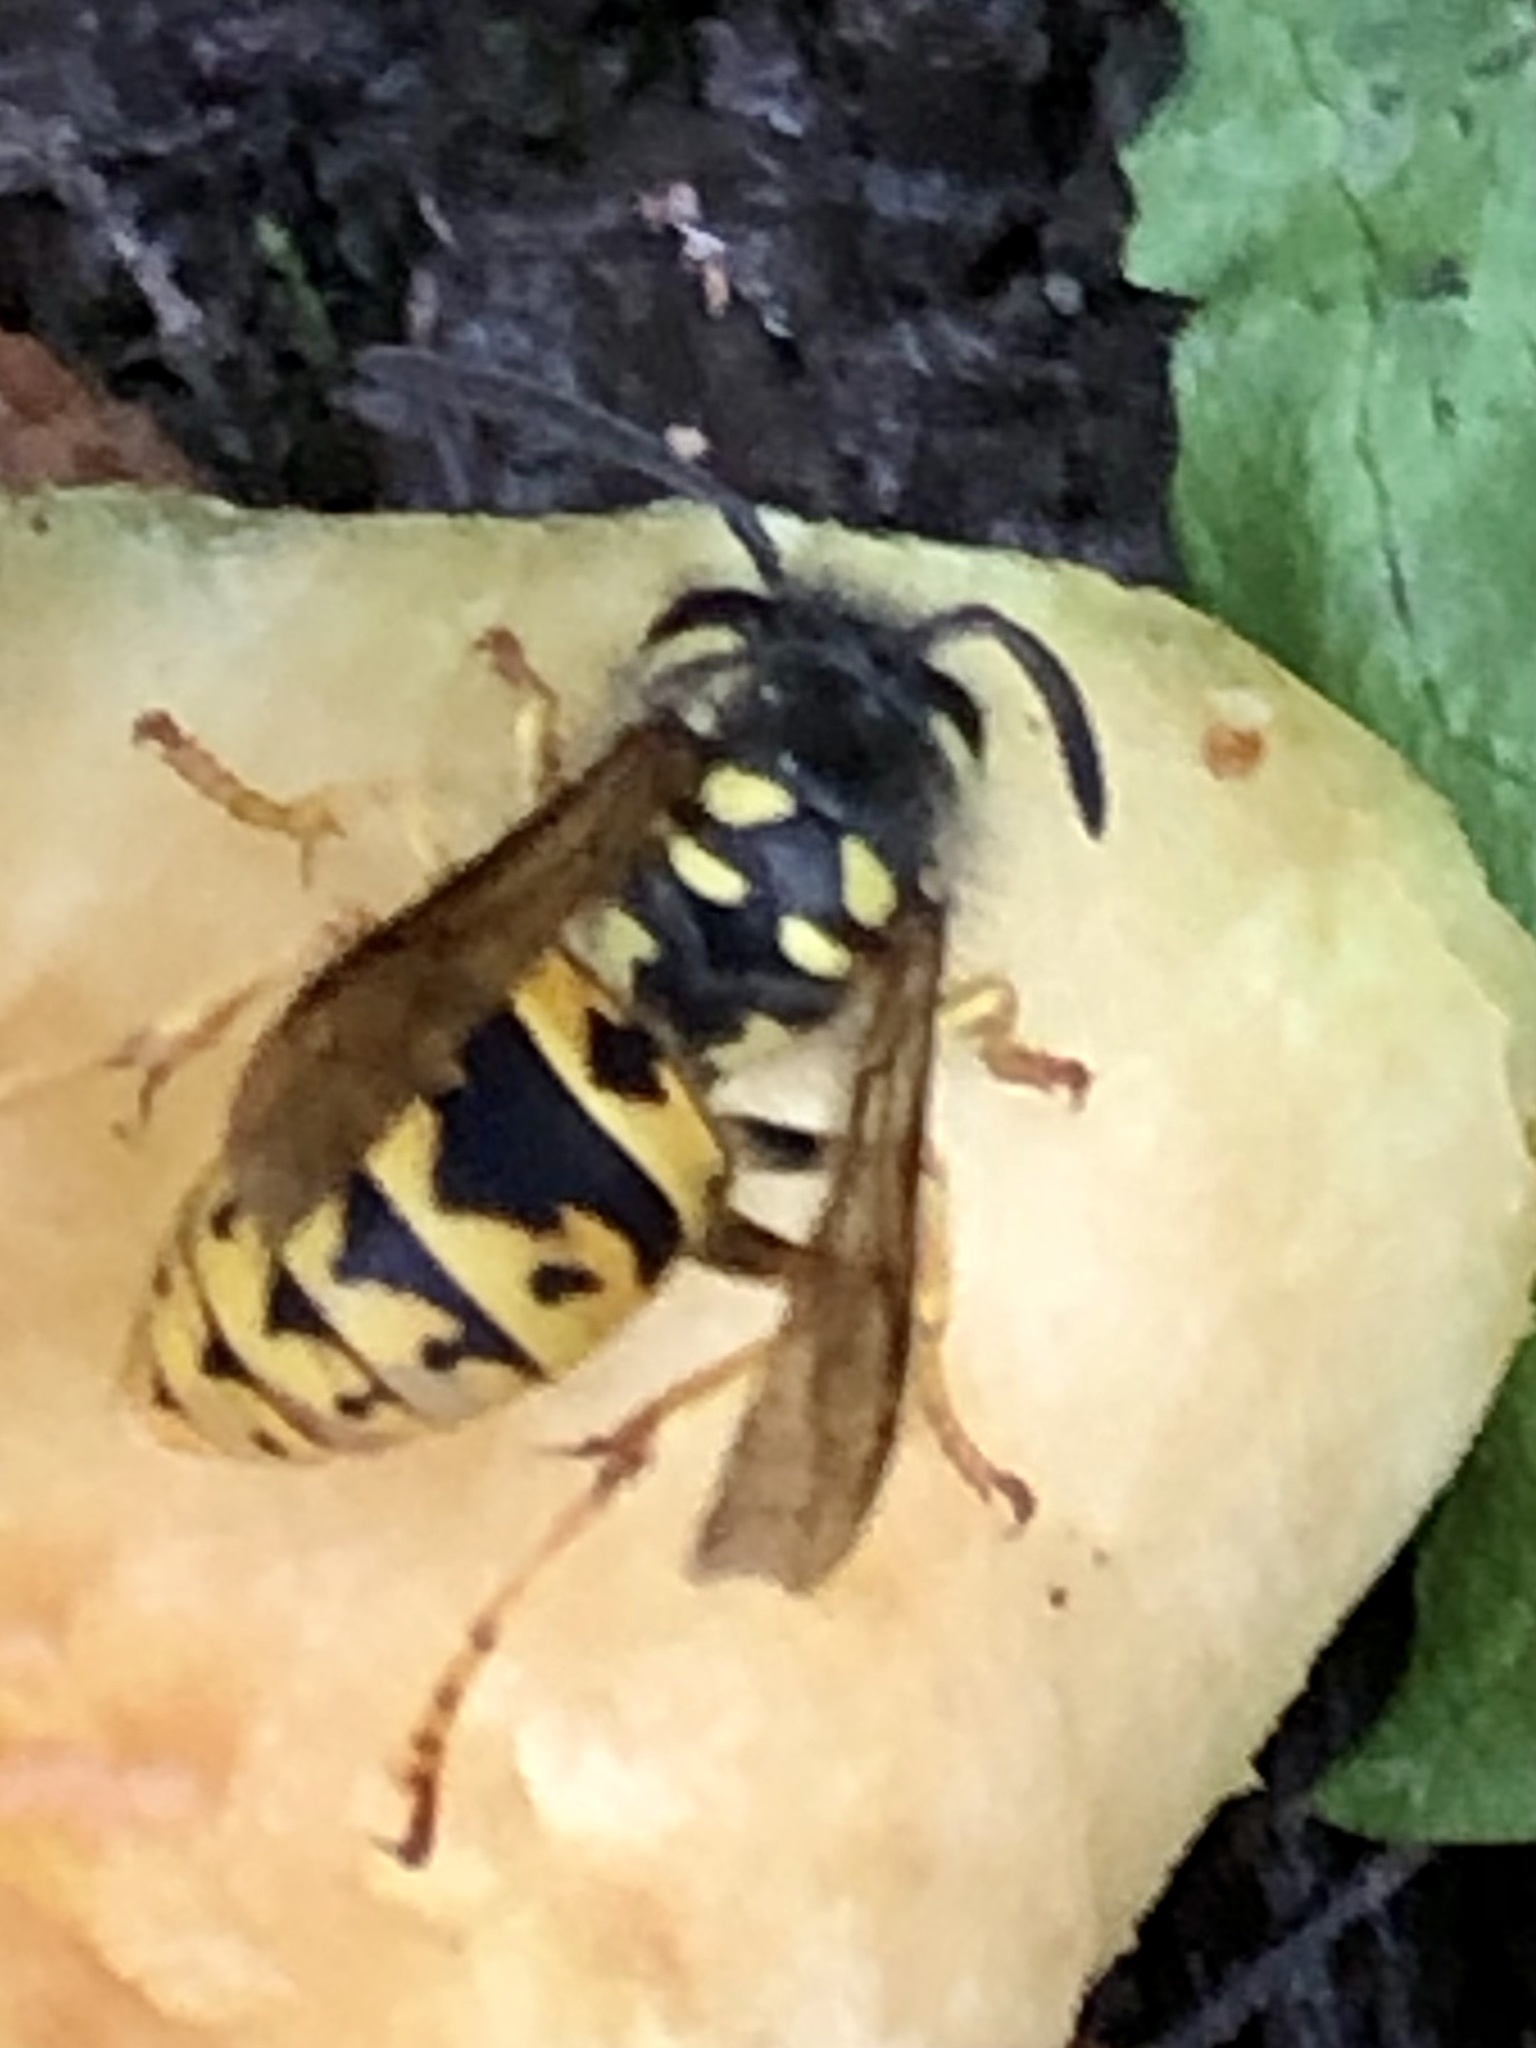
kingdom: Animalia
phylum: Arthropoda
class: Insecta
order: Hymenoptera
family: Vespidae
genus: Vespula
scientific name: Vespula germanica
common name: German wasp
